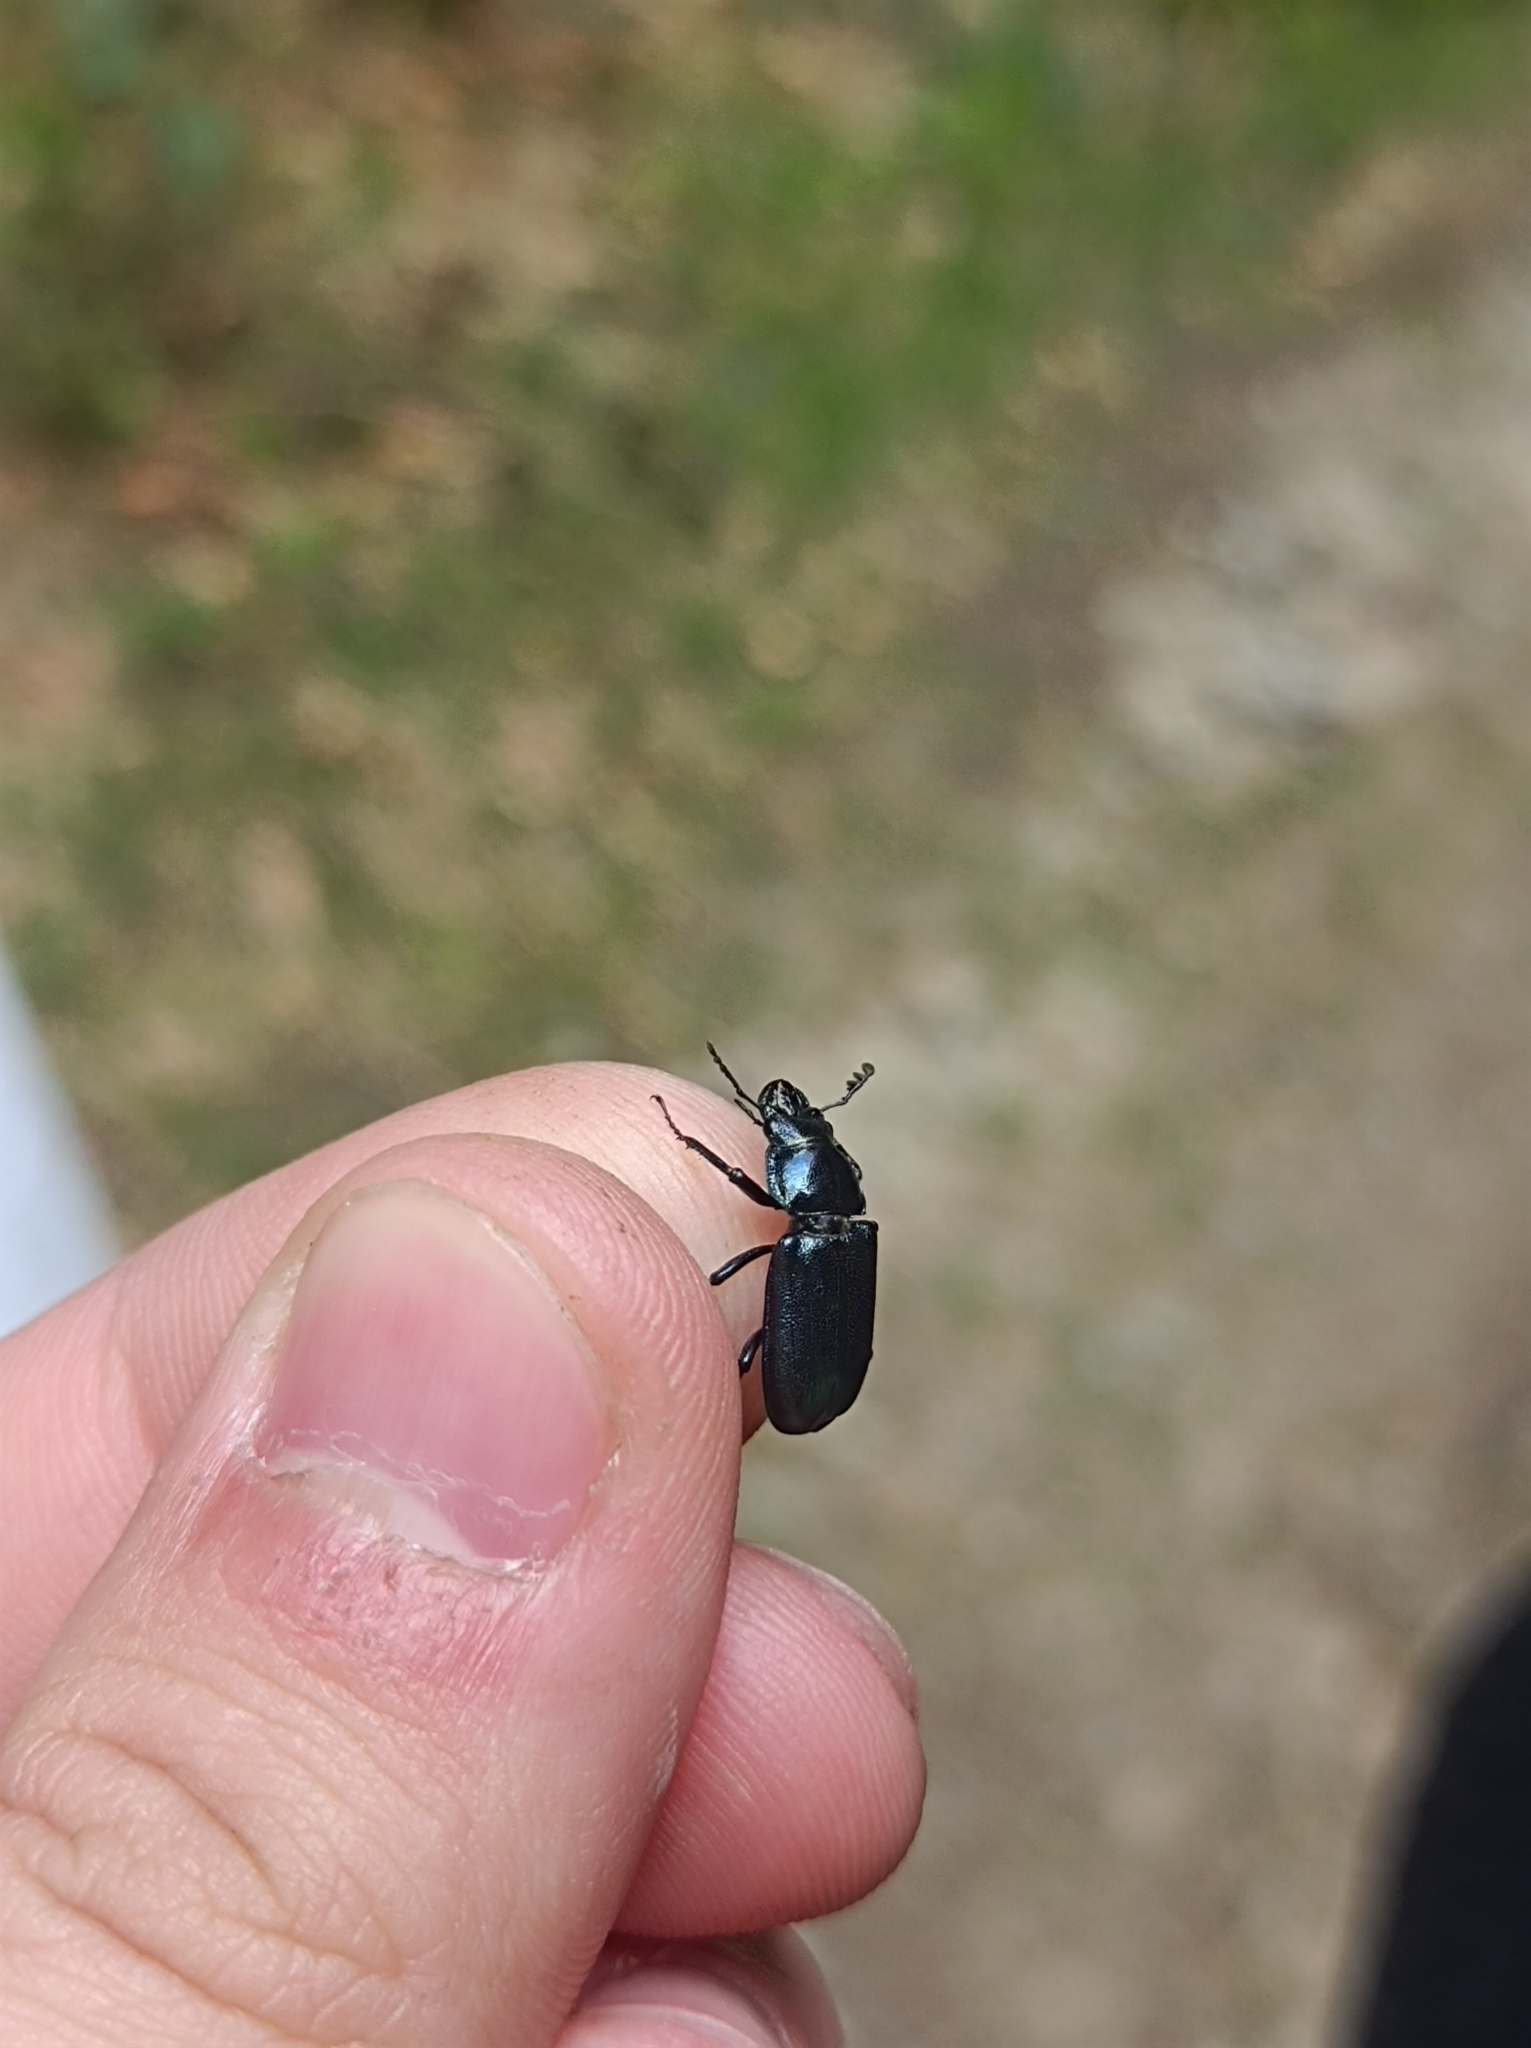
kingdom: Animalia
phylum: Arthropoda
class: Insecta
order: Coleoptera
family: Lucanidae
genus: Platycerus
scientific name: Platycerus caraboides
